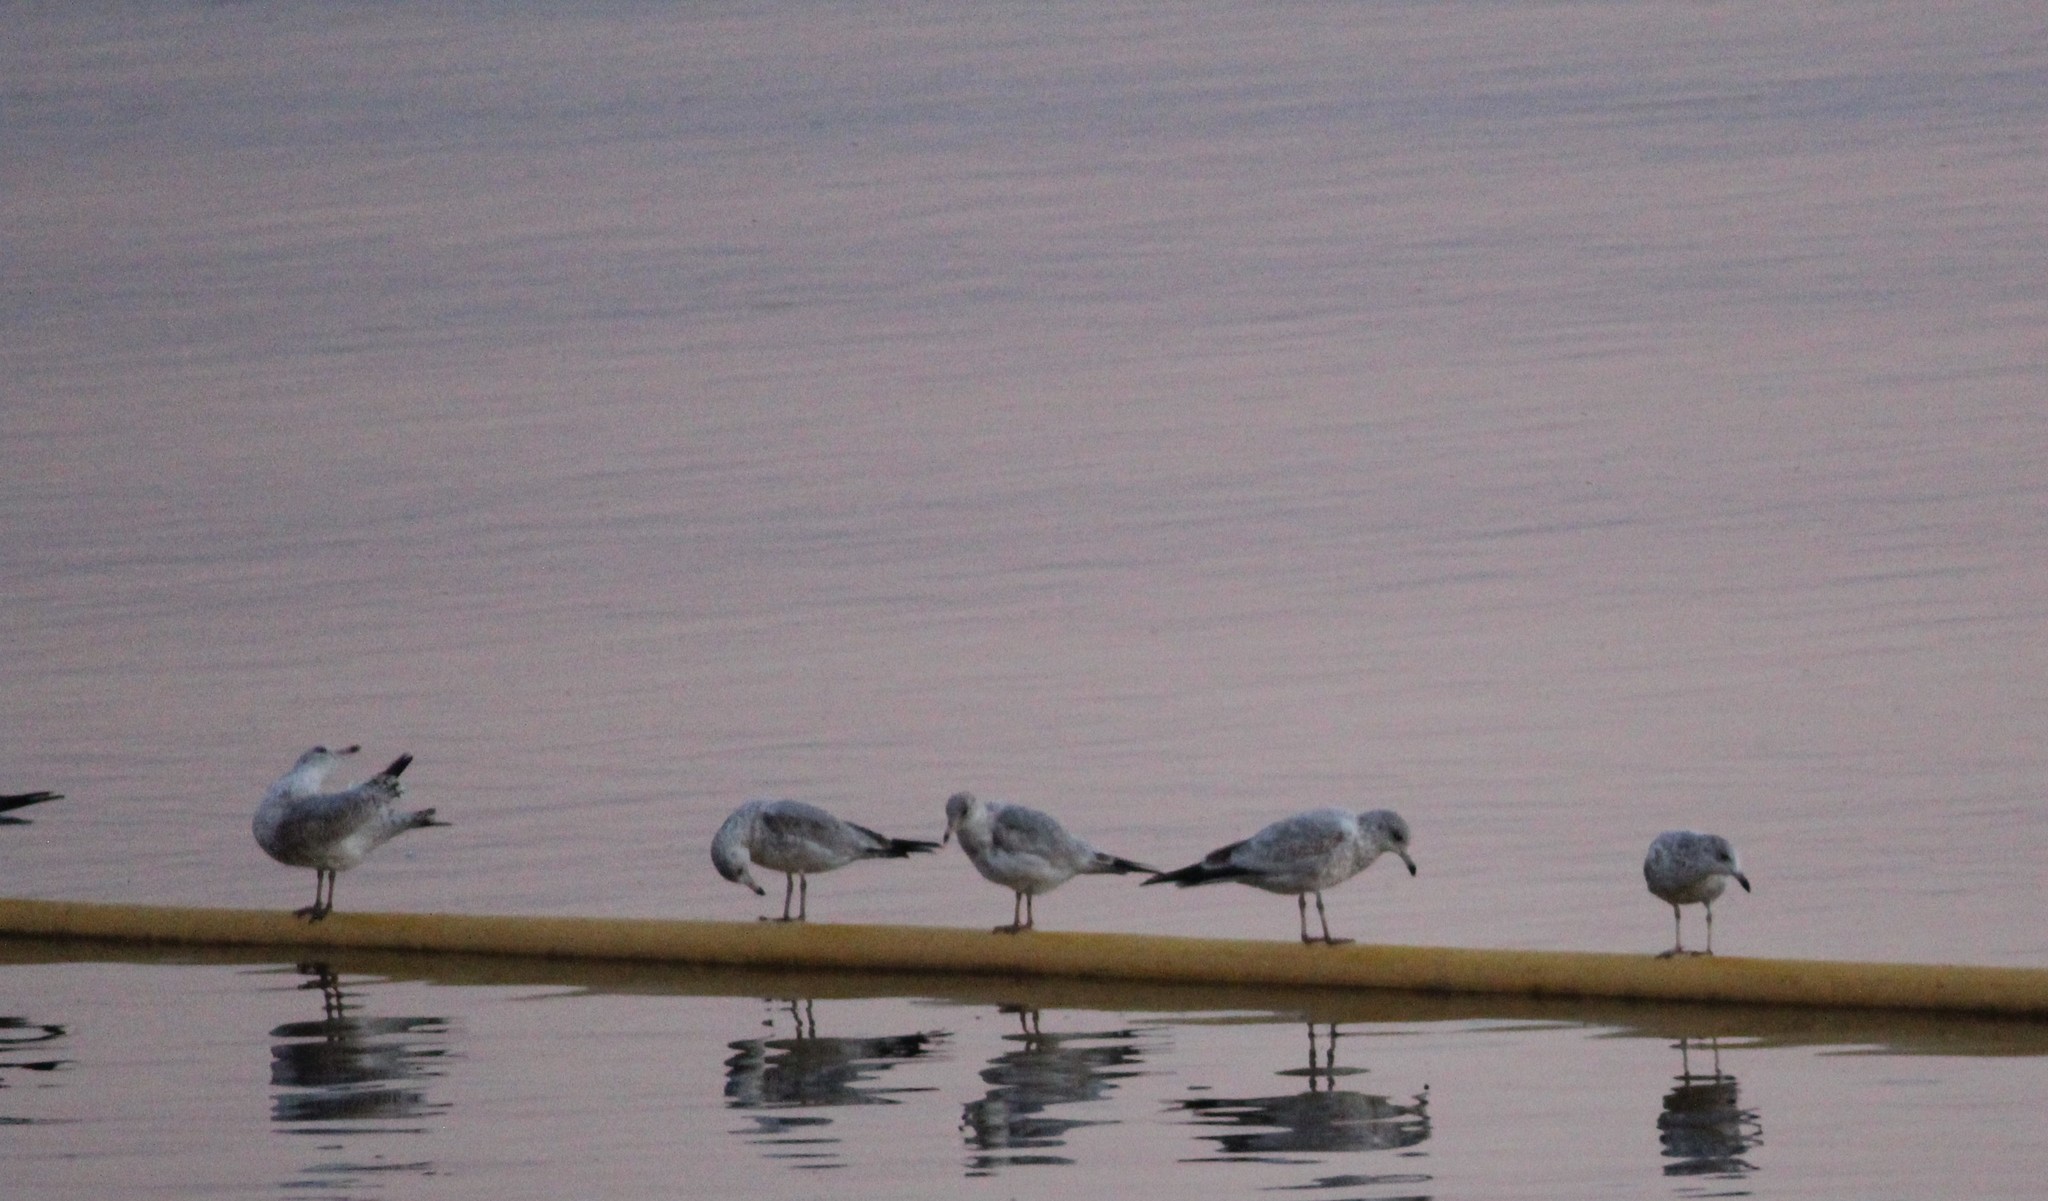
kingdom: Animalia
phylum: Chordata
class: Aves
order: Charadriiformes
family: Laridae
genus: Larus
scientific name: Larus delawarensis
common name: Ring-billed gull
